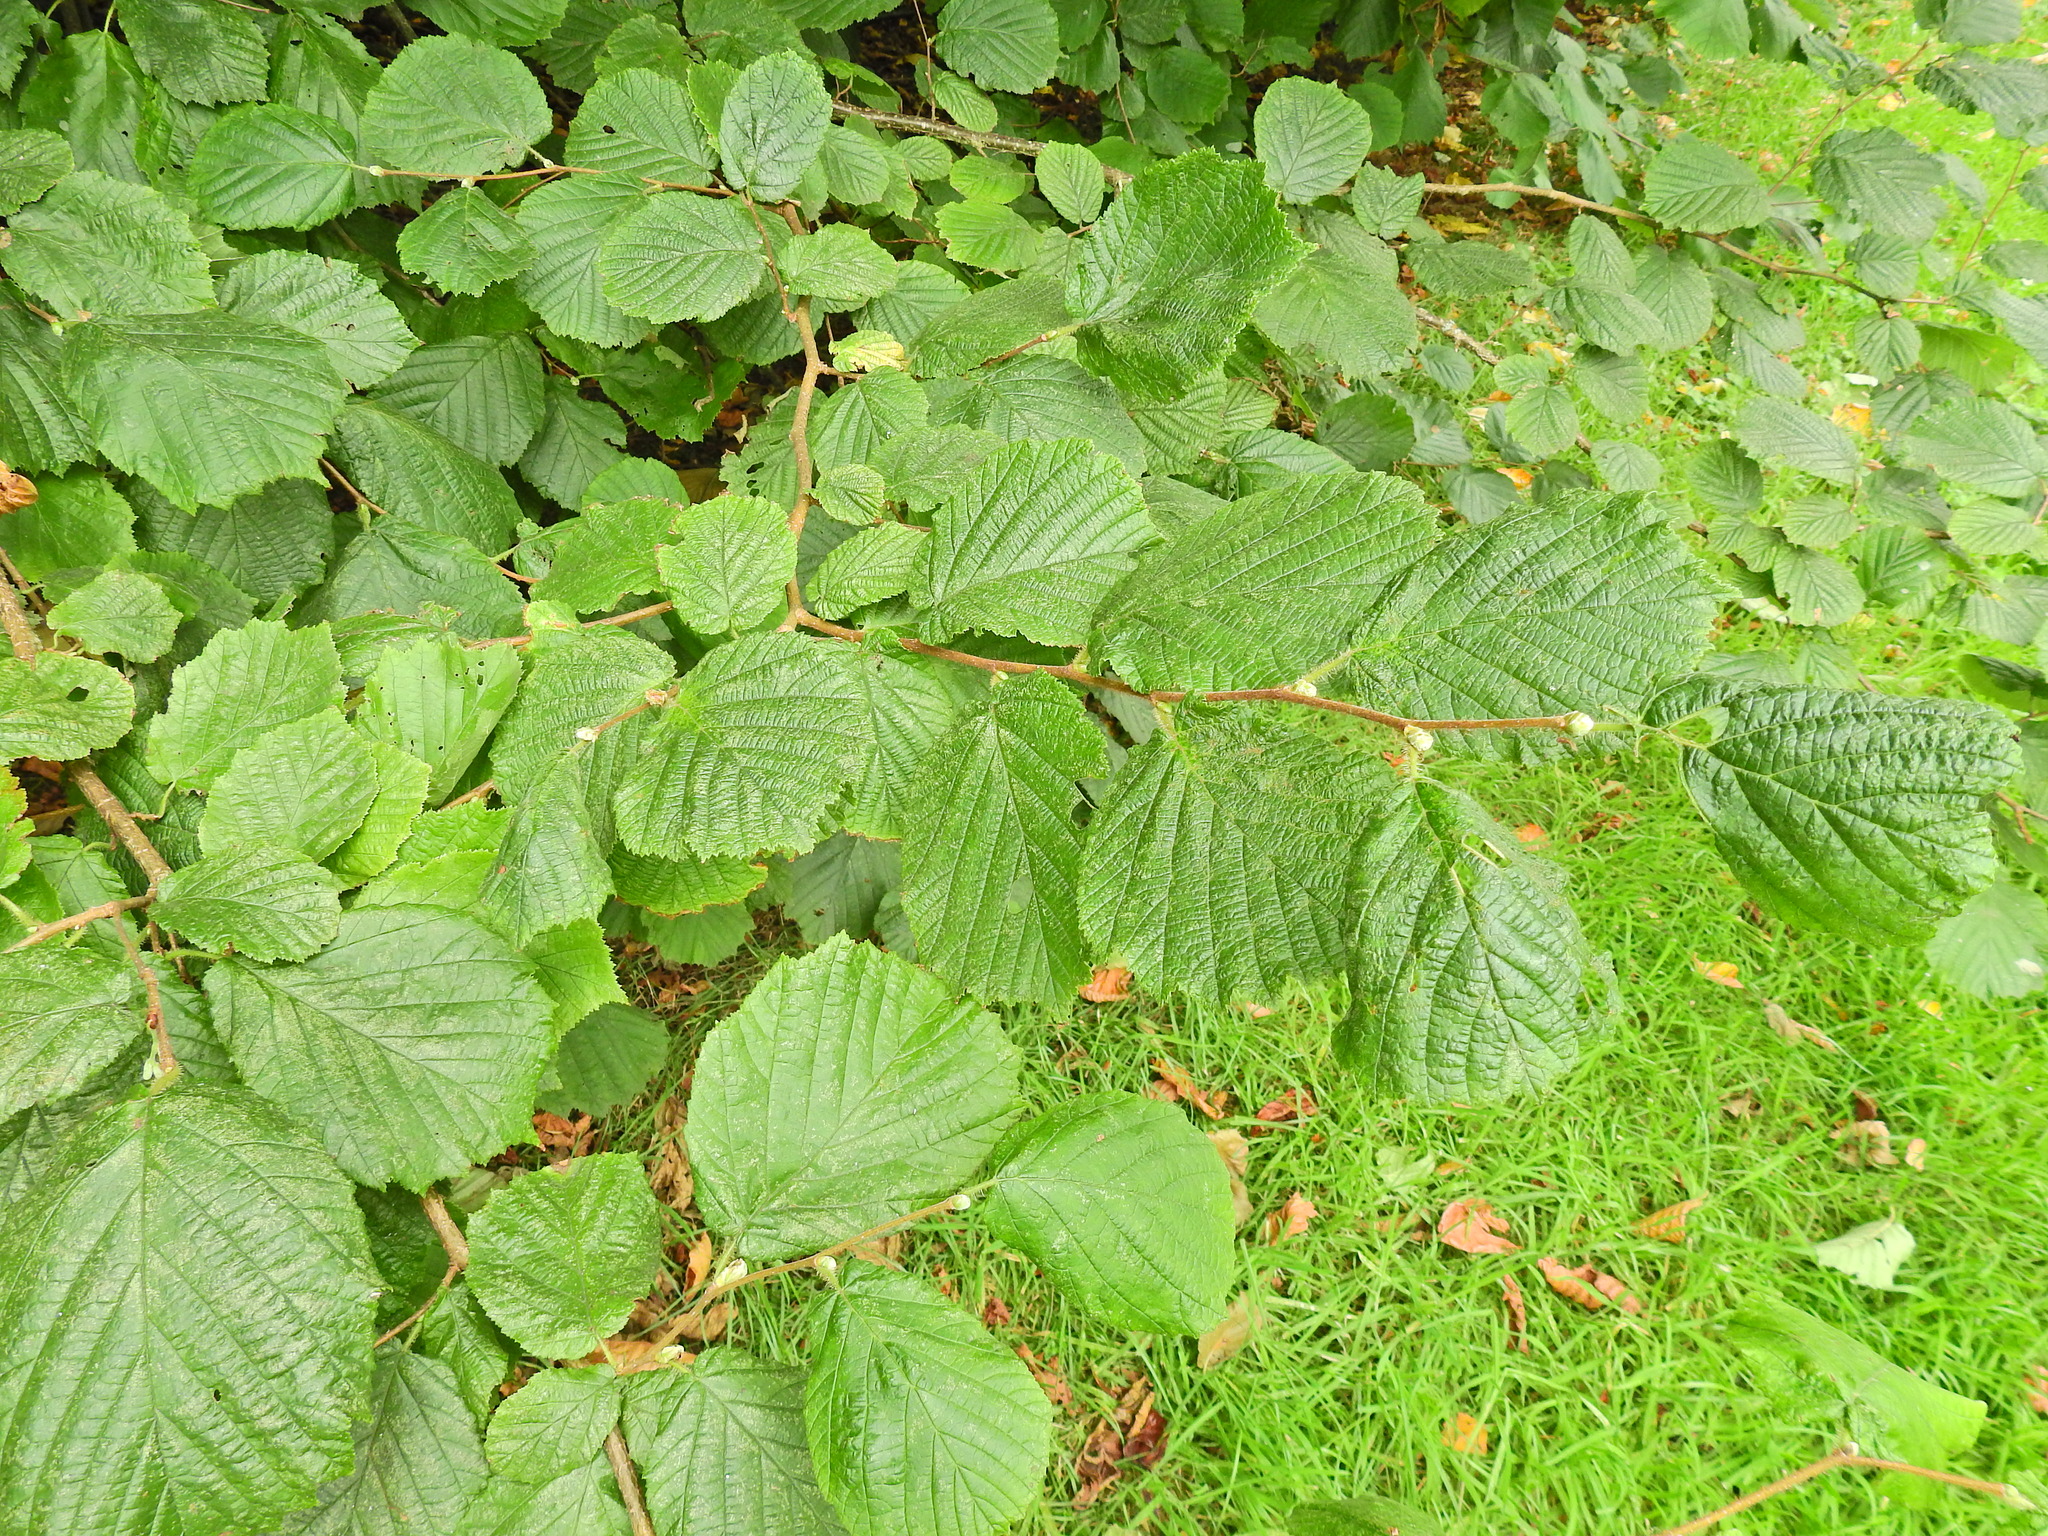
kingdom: Plantae
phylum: Tracheophyta
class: Magnoliopsida
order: Fagales
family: Betulaceae
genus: Corylus
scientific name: Corylus avellana
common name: European hazel
